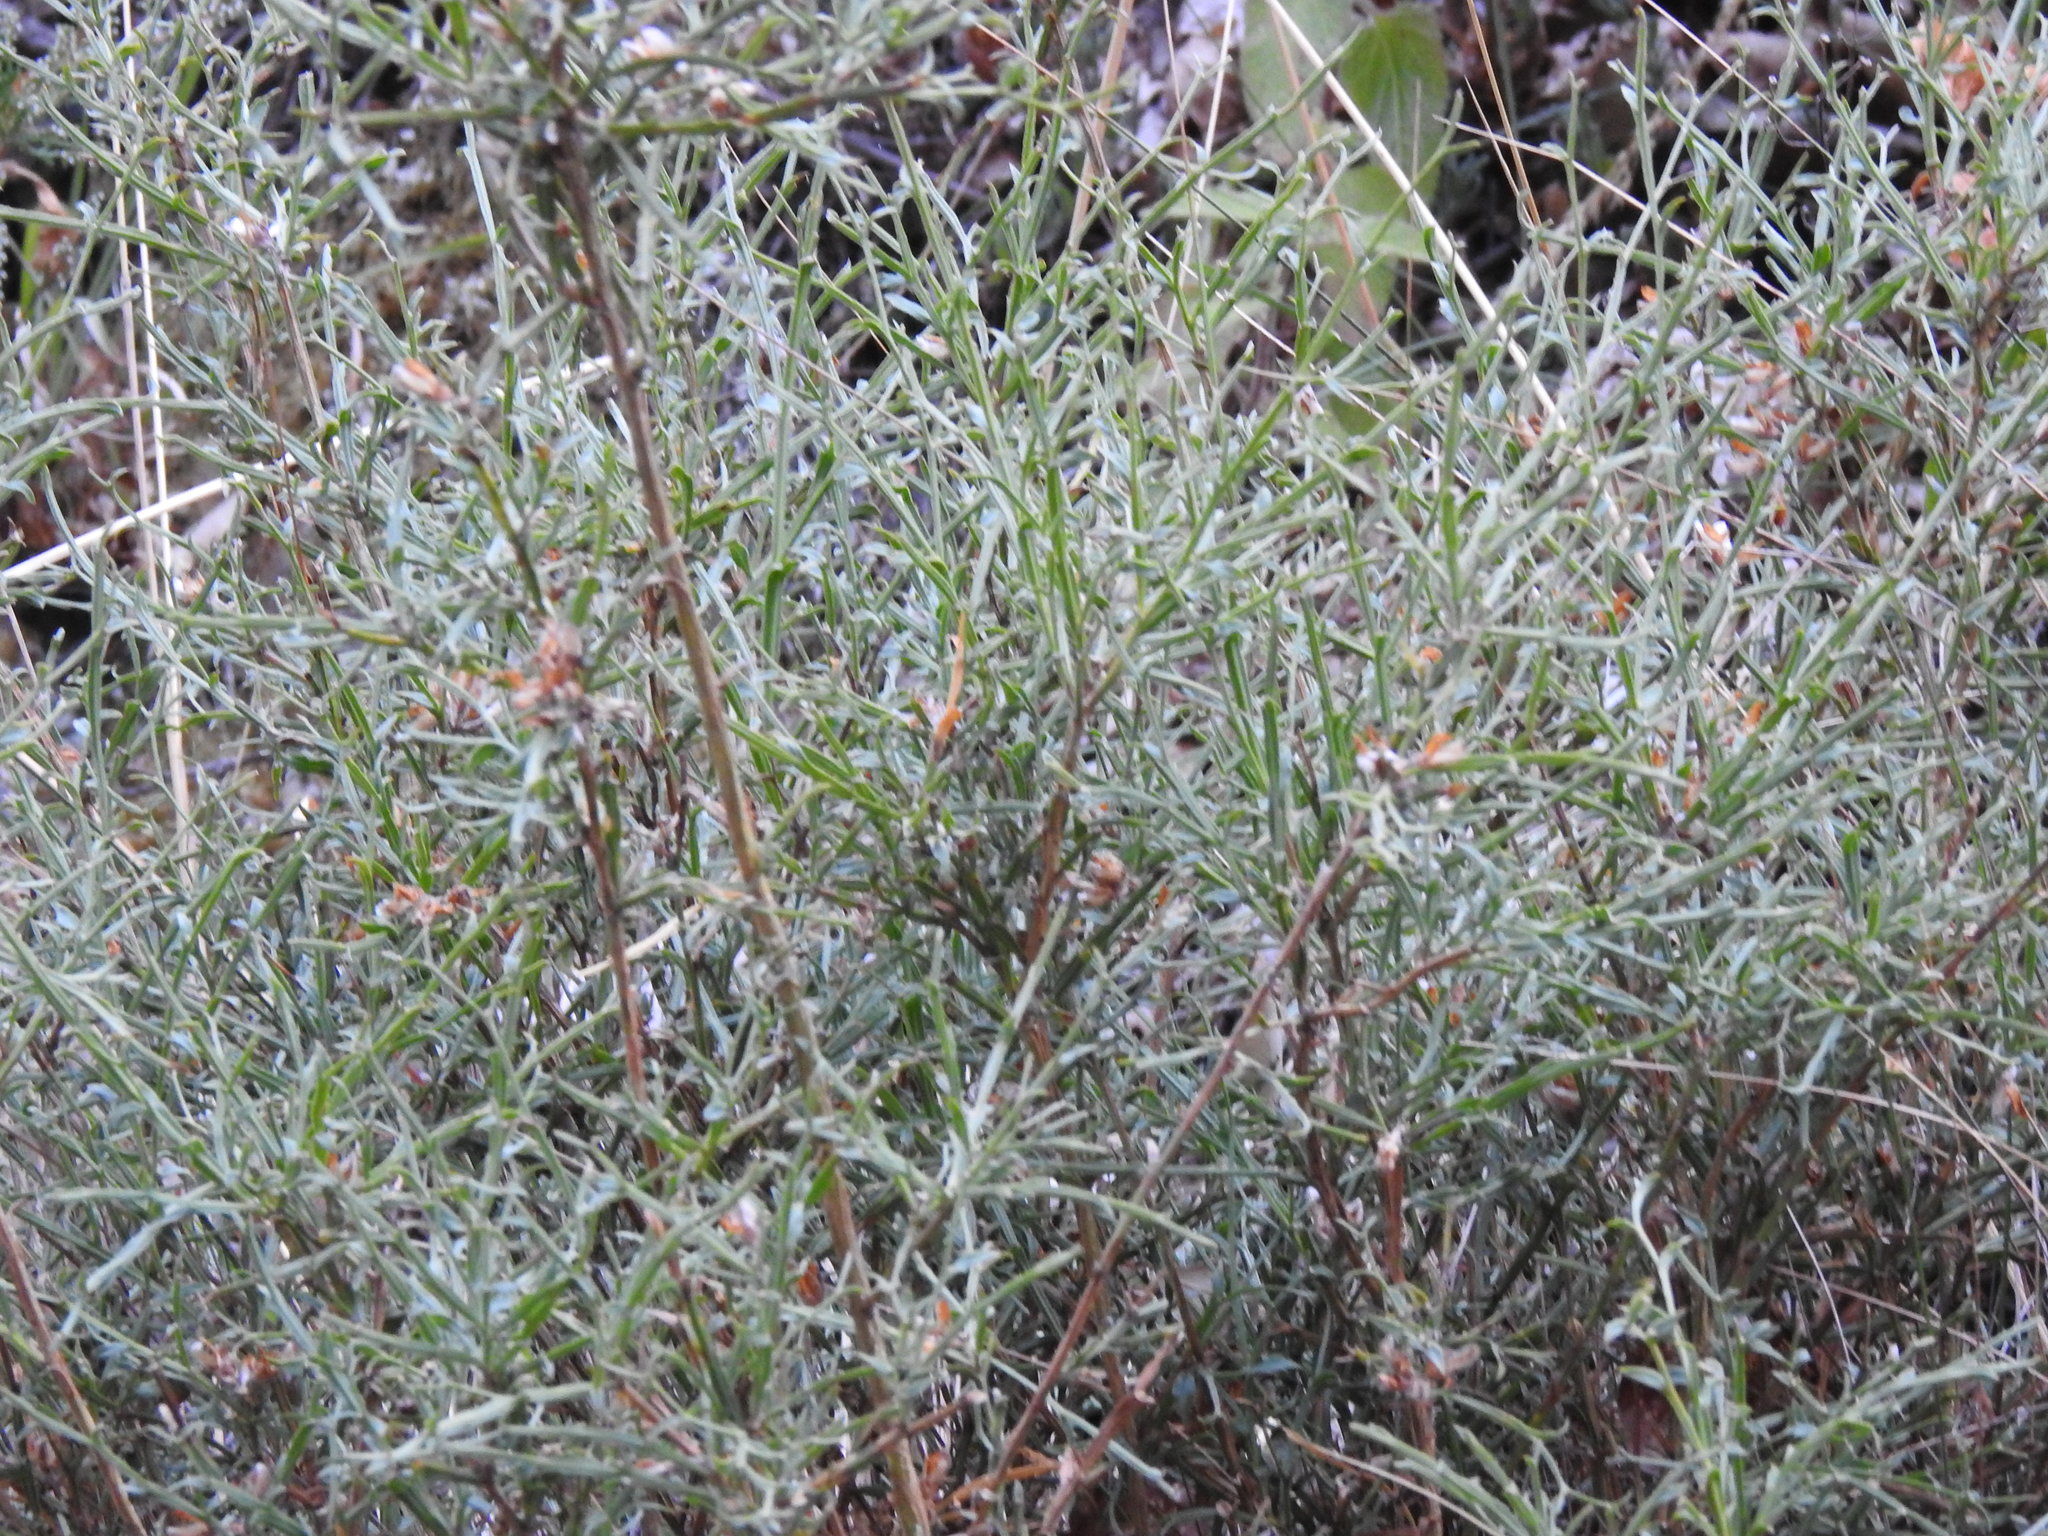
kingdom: Plantae
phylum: Tracheophyta
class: Magnoliopsida
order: Fabales
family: Fabaceae
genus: Genista
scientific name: Genista tridentata
